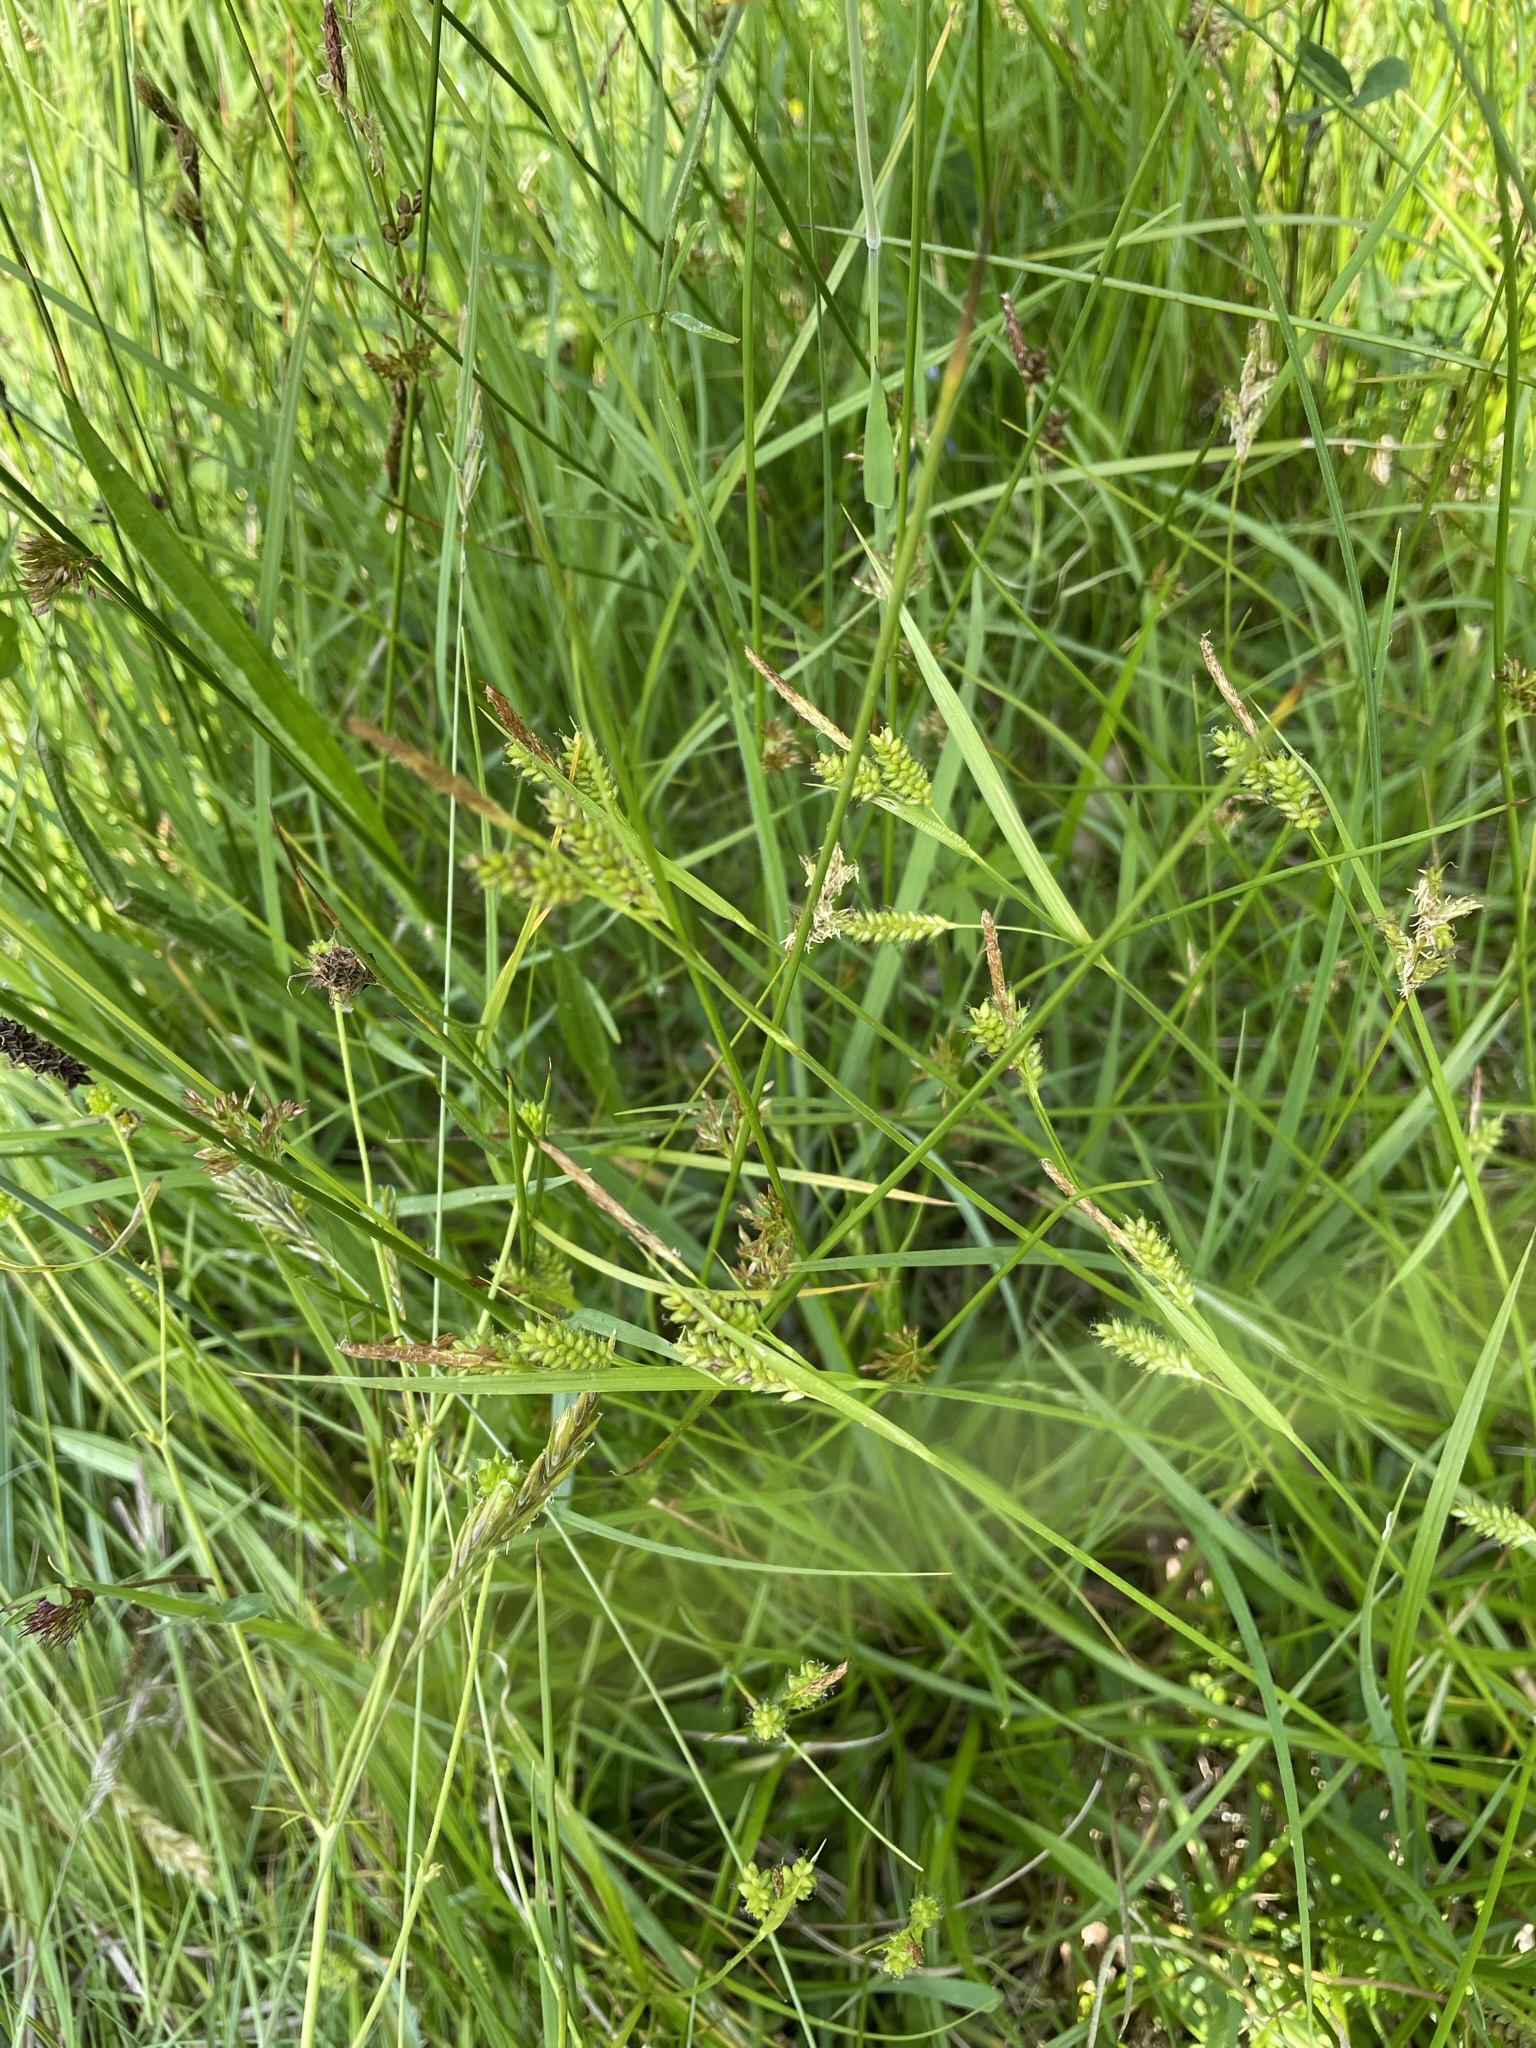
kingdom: Plantae
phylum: Tracheophyta
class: Liliopsida
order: Poales
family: Cyperaceae
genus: Carex
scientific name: Carex pallescens
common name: Pale sedge
